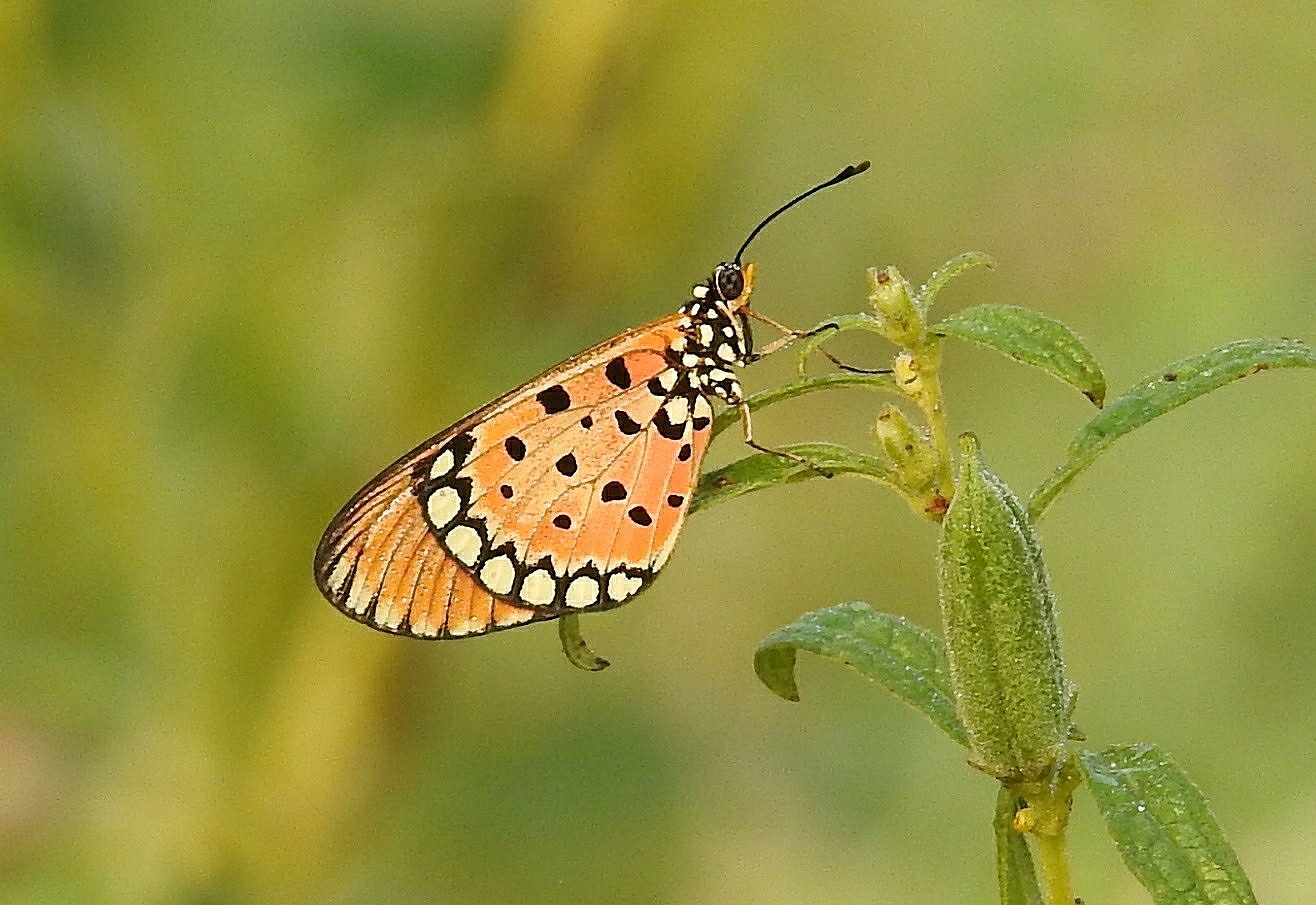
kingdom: Animalia
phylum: Arthropoda
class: Insecta
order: Lepidoptera
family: Nymphalidae
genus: Acraea
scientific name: Acraea terpsicore
